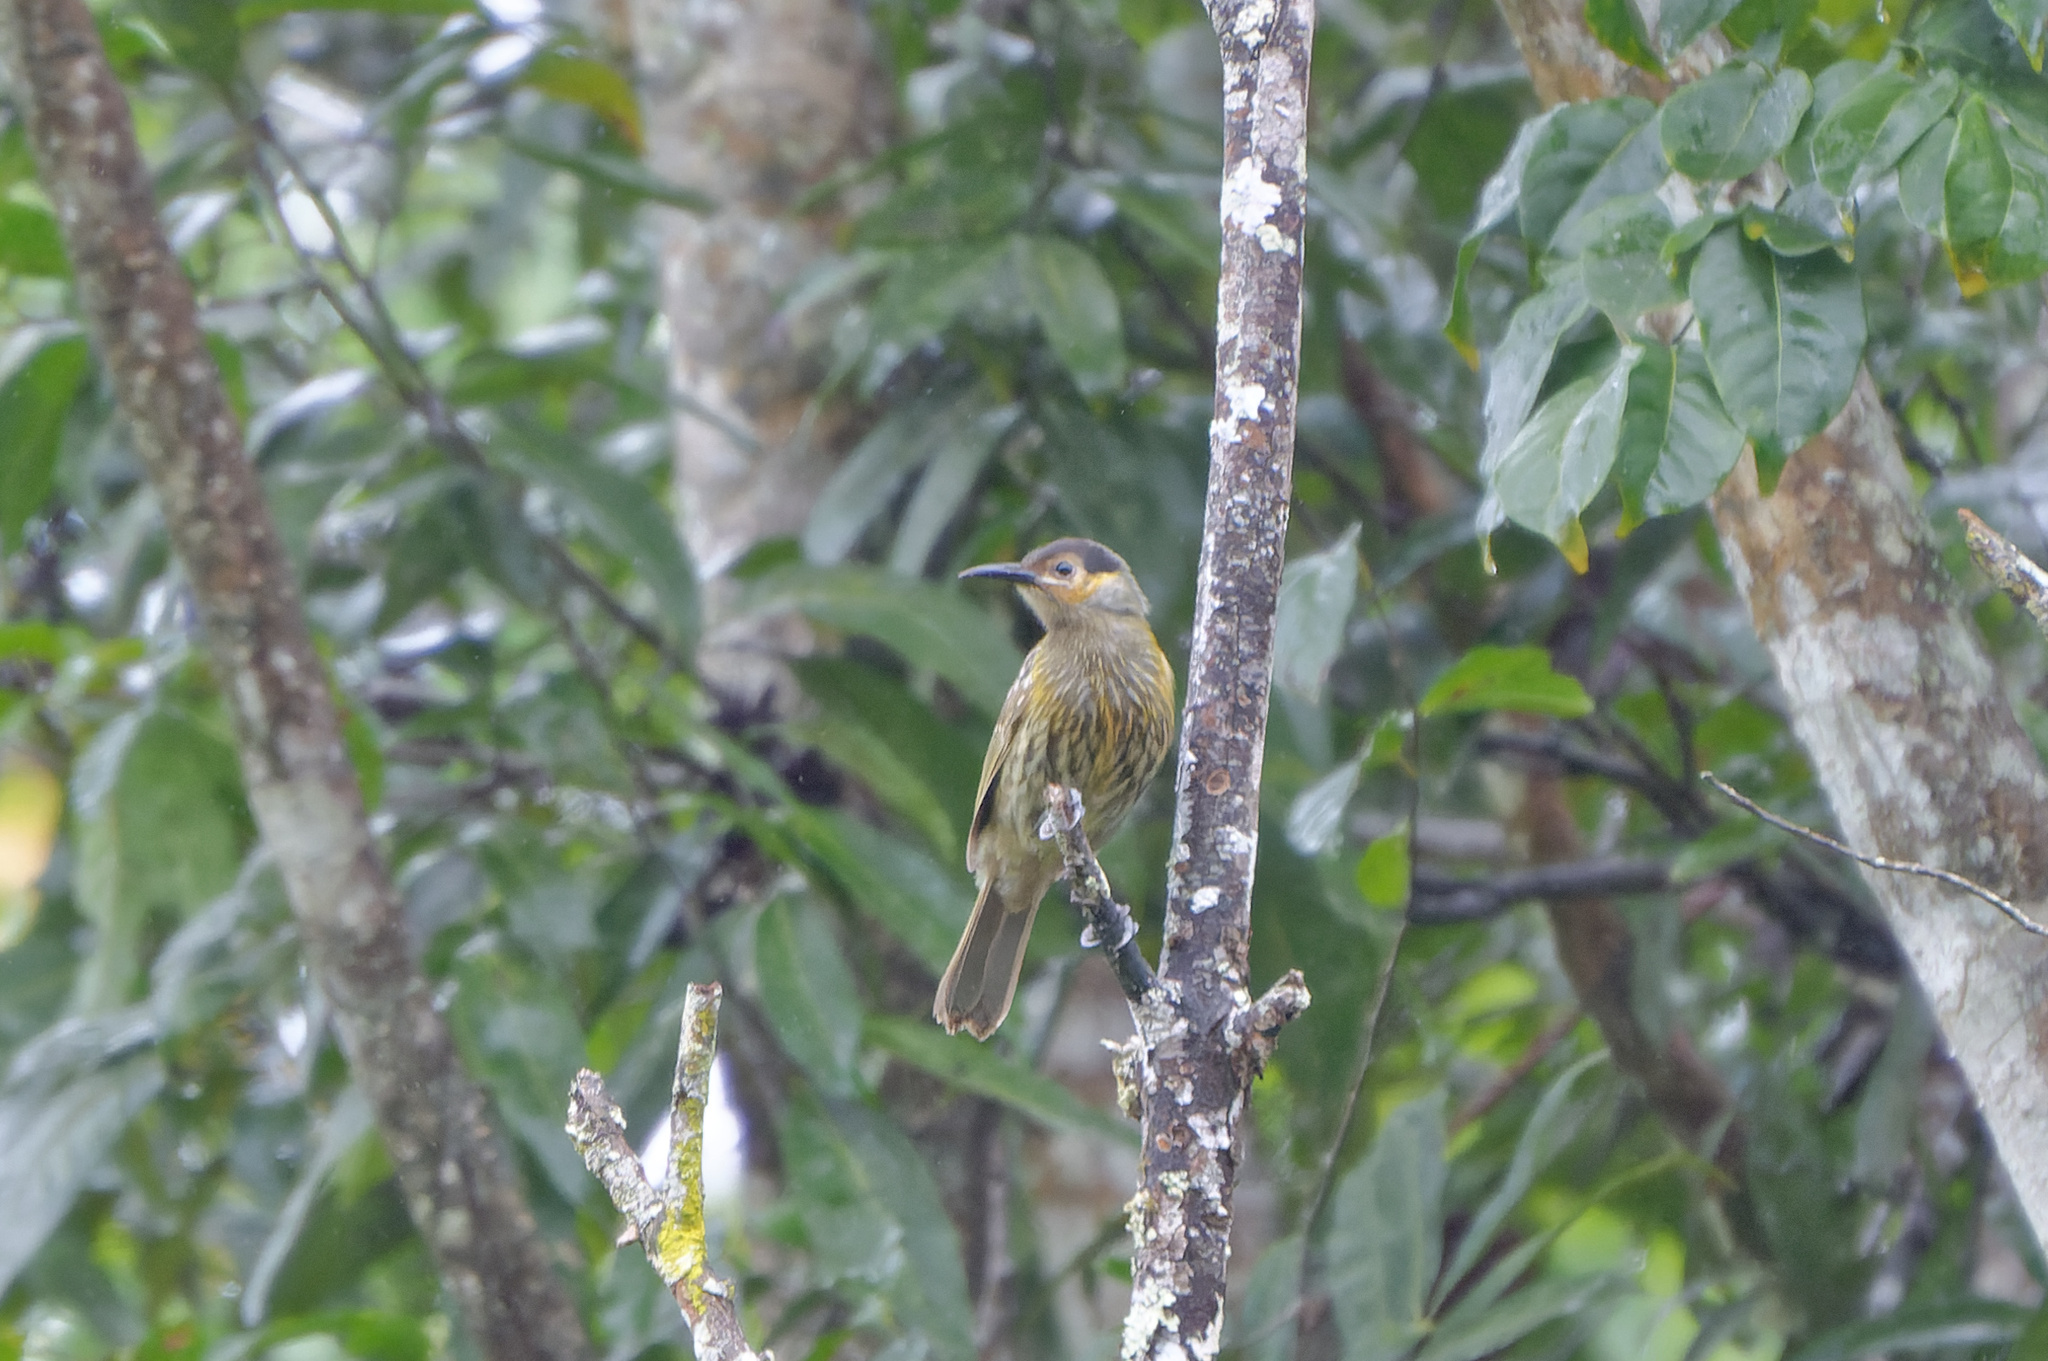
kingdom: Animalia
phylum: Chordata
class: Aves
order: Passeriformes
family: Meliphagidae
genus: Xanthotis
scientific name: Xanthotis macleayanus
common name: Macleay's honeyeater
